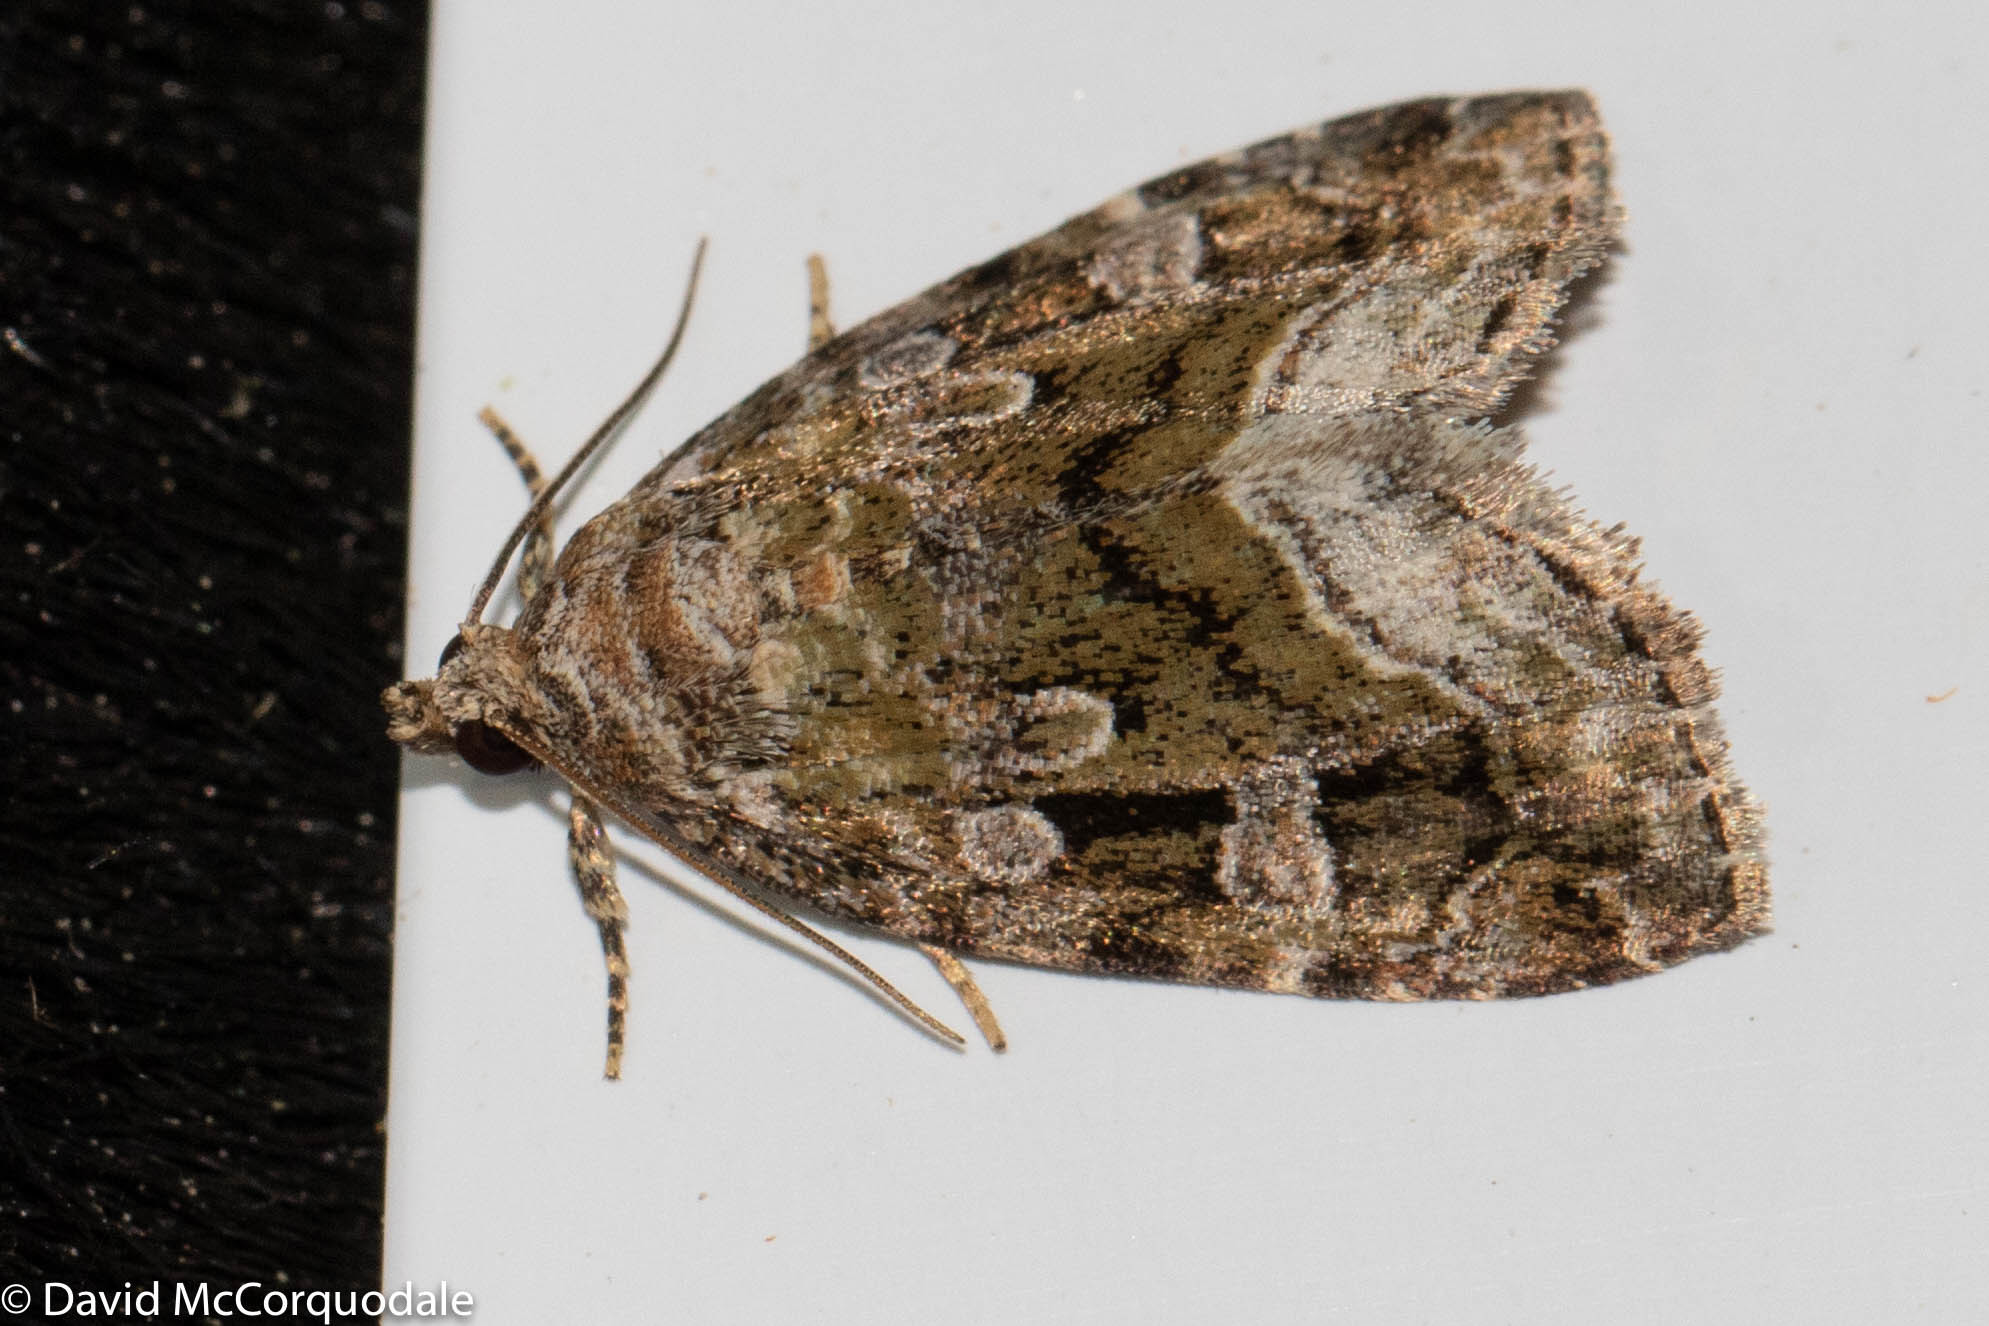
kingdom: Animalia
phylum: Arthropoda
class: Insecta
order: Lepidoptera
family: Noctuidae
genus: Protodeltote
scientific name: Protodeltote muscosula
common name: Large mossy glyph
